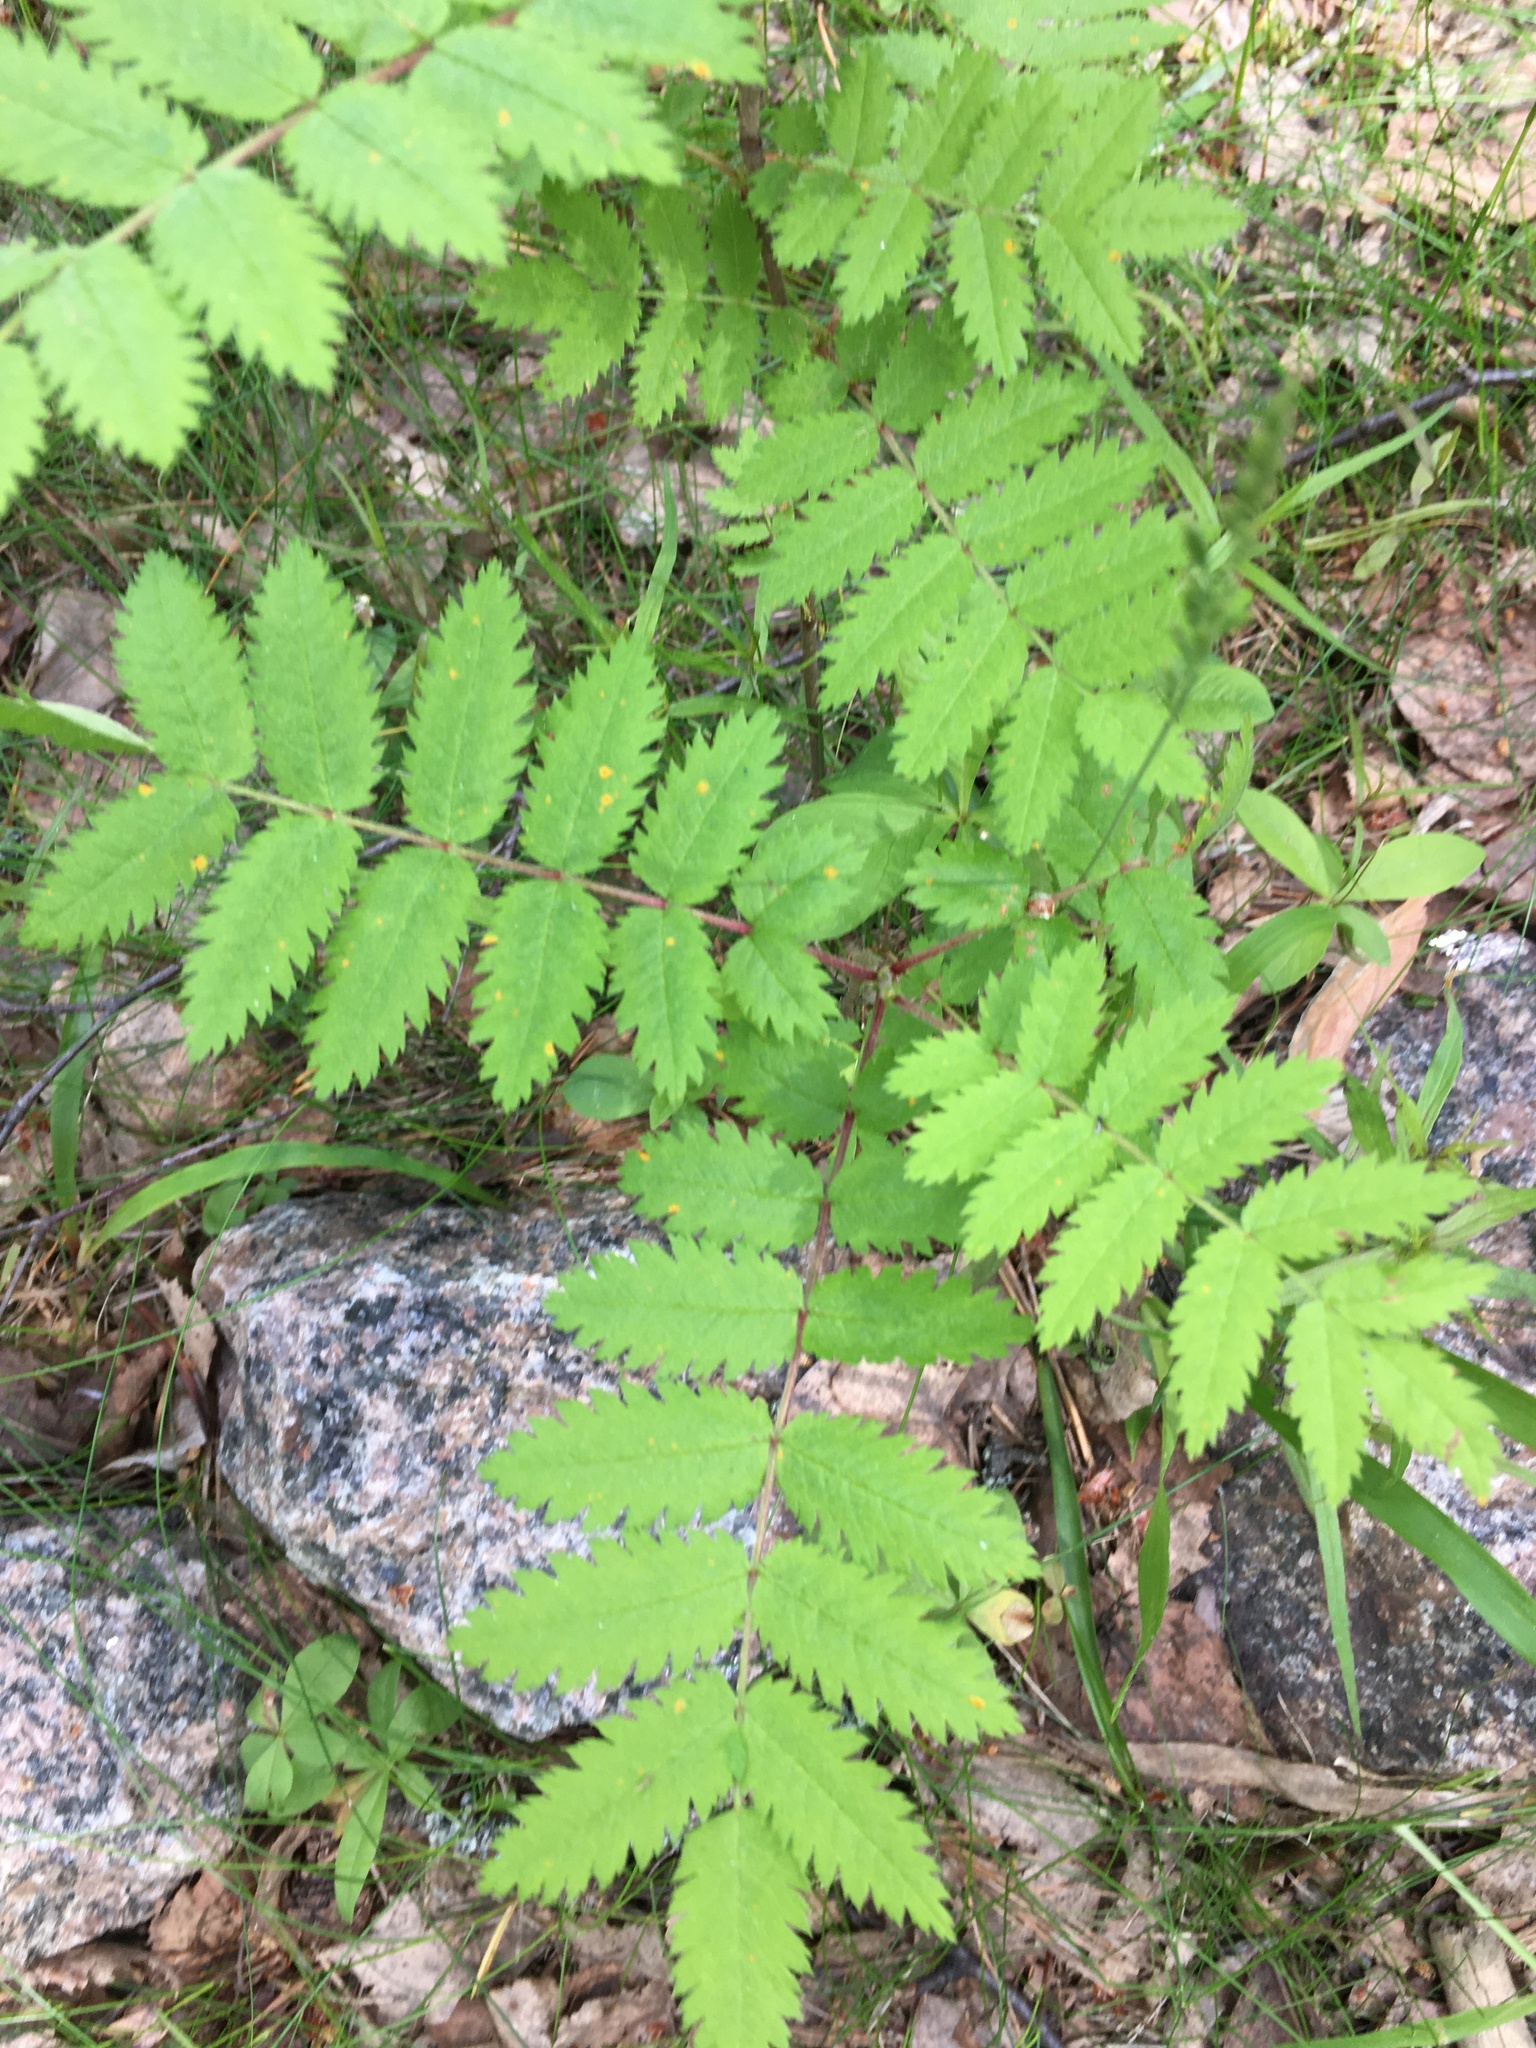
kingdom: Plantae
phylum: Tracheophyta
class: Magnoliopsida
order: Rosales
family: Rosaceae
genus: Sorbus
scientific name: Sorbus aucuparia
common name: Rowan
